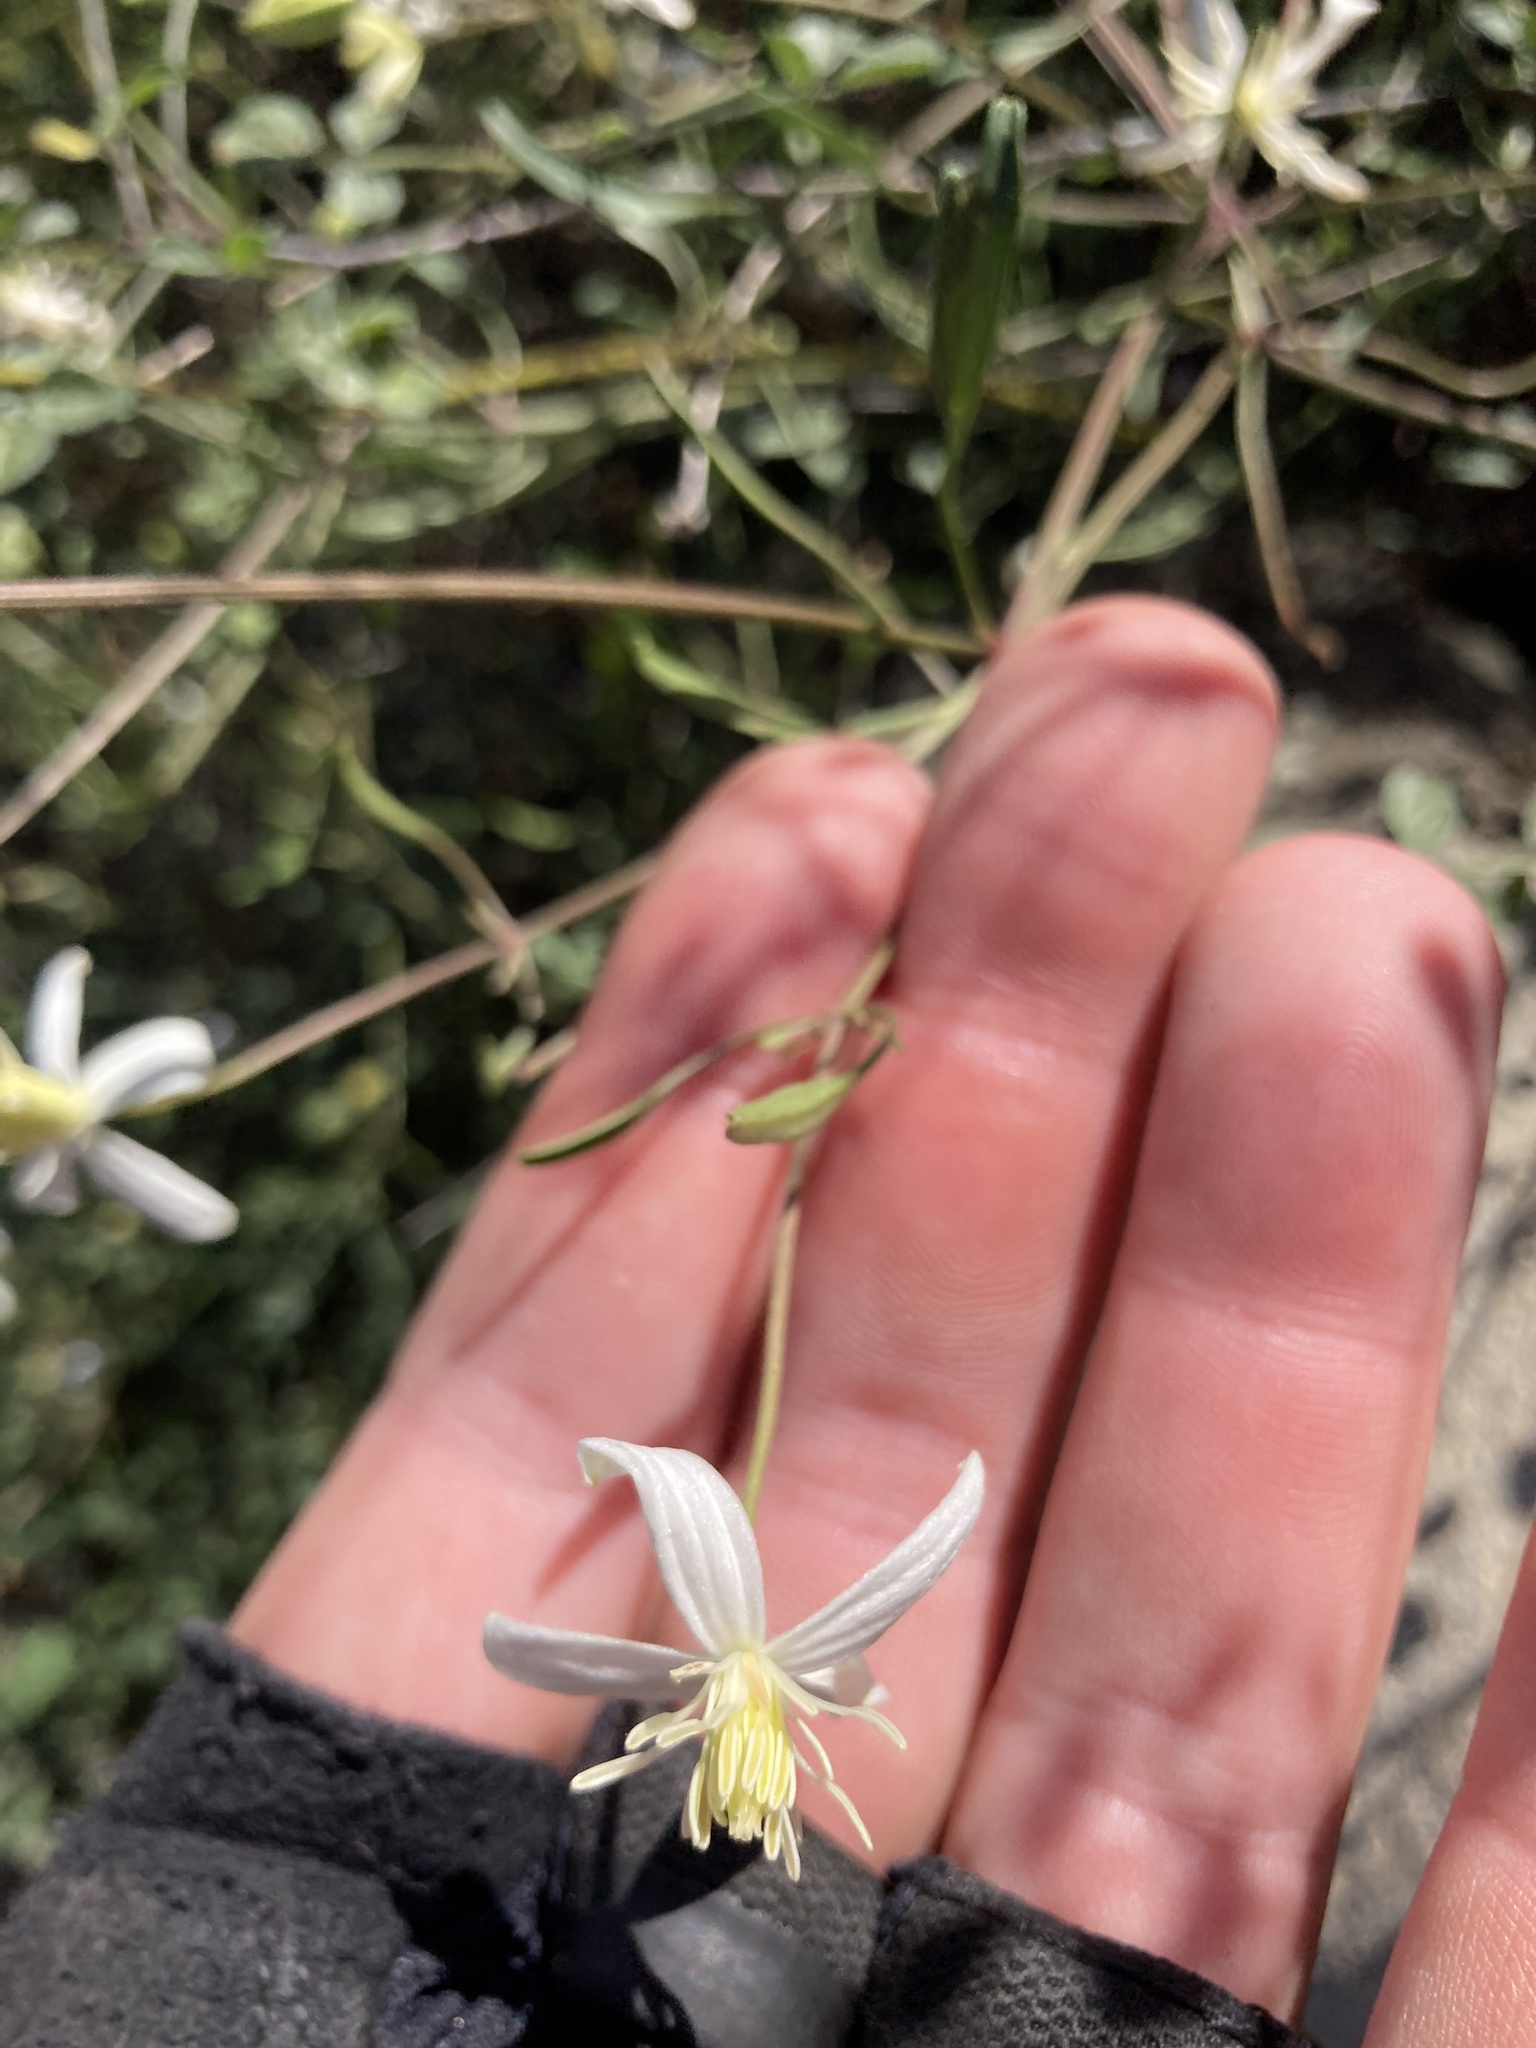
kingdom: Plantae
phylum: Tracheophyta
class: Magnoliopsida
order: Ranunculales
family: Ranunculaceae
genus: Clematis
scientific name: Clematis flammula
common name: Virgin's-bower
